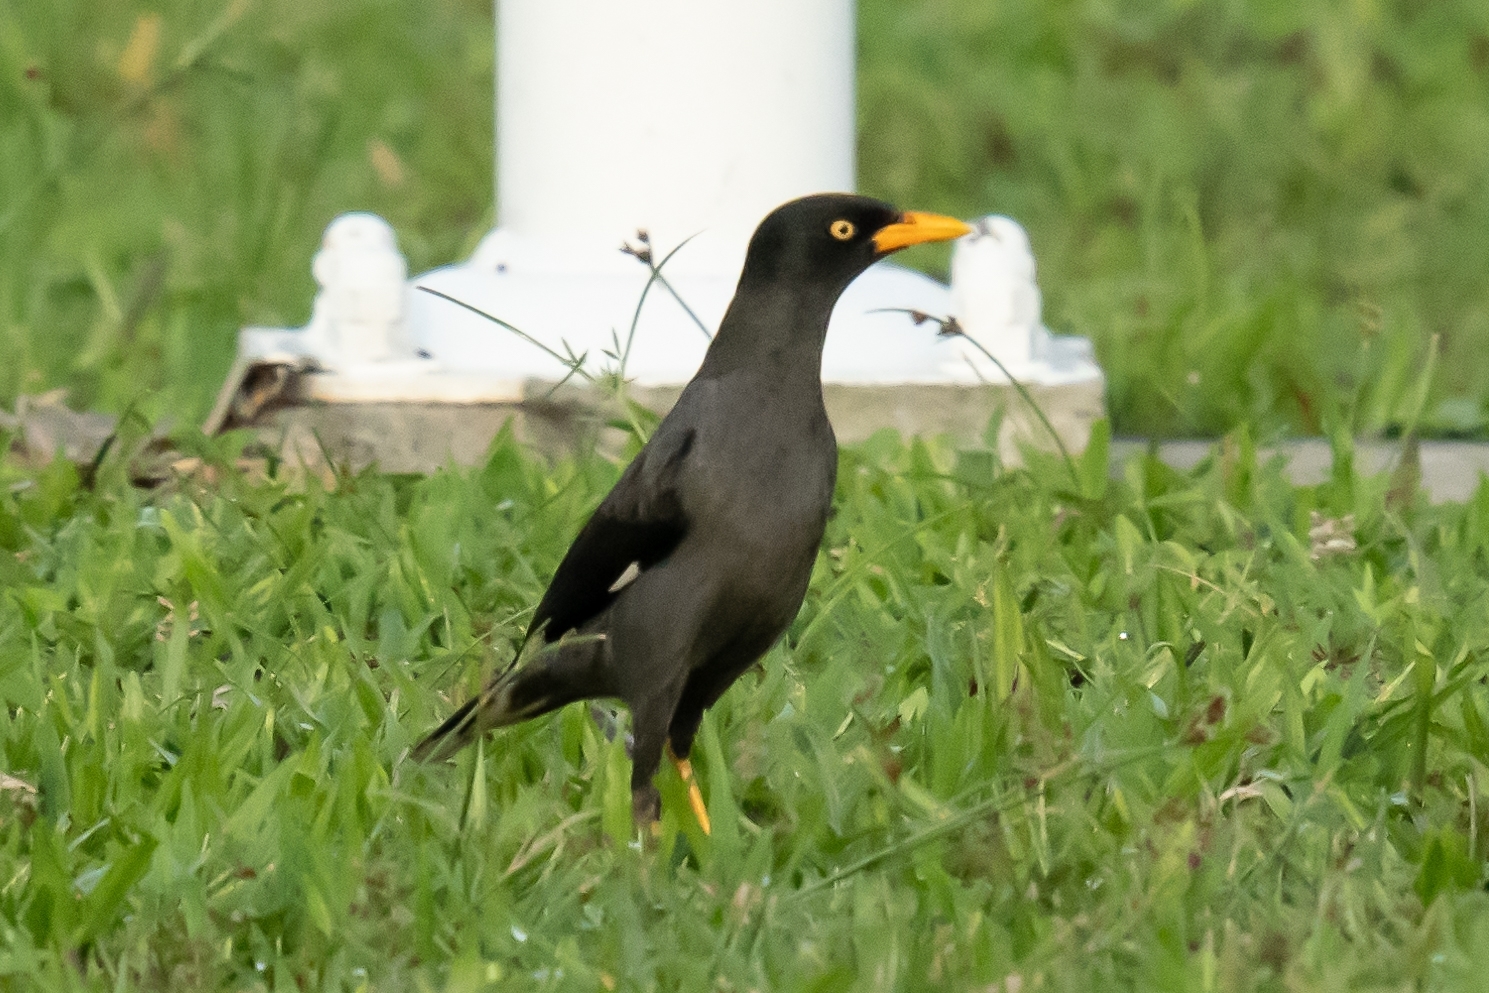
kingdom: Animalia
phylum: Chordata
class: Aves
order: Passeriformes
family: Sturnidae
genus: Acridotheres
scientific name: Acridotheres javanicus
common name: Javan myna
